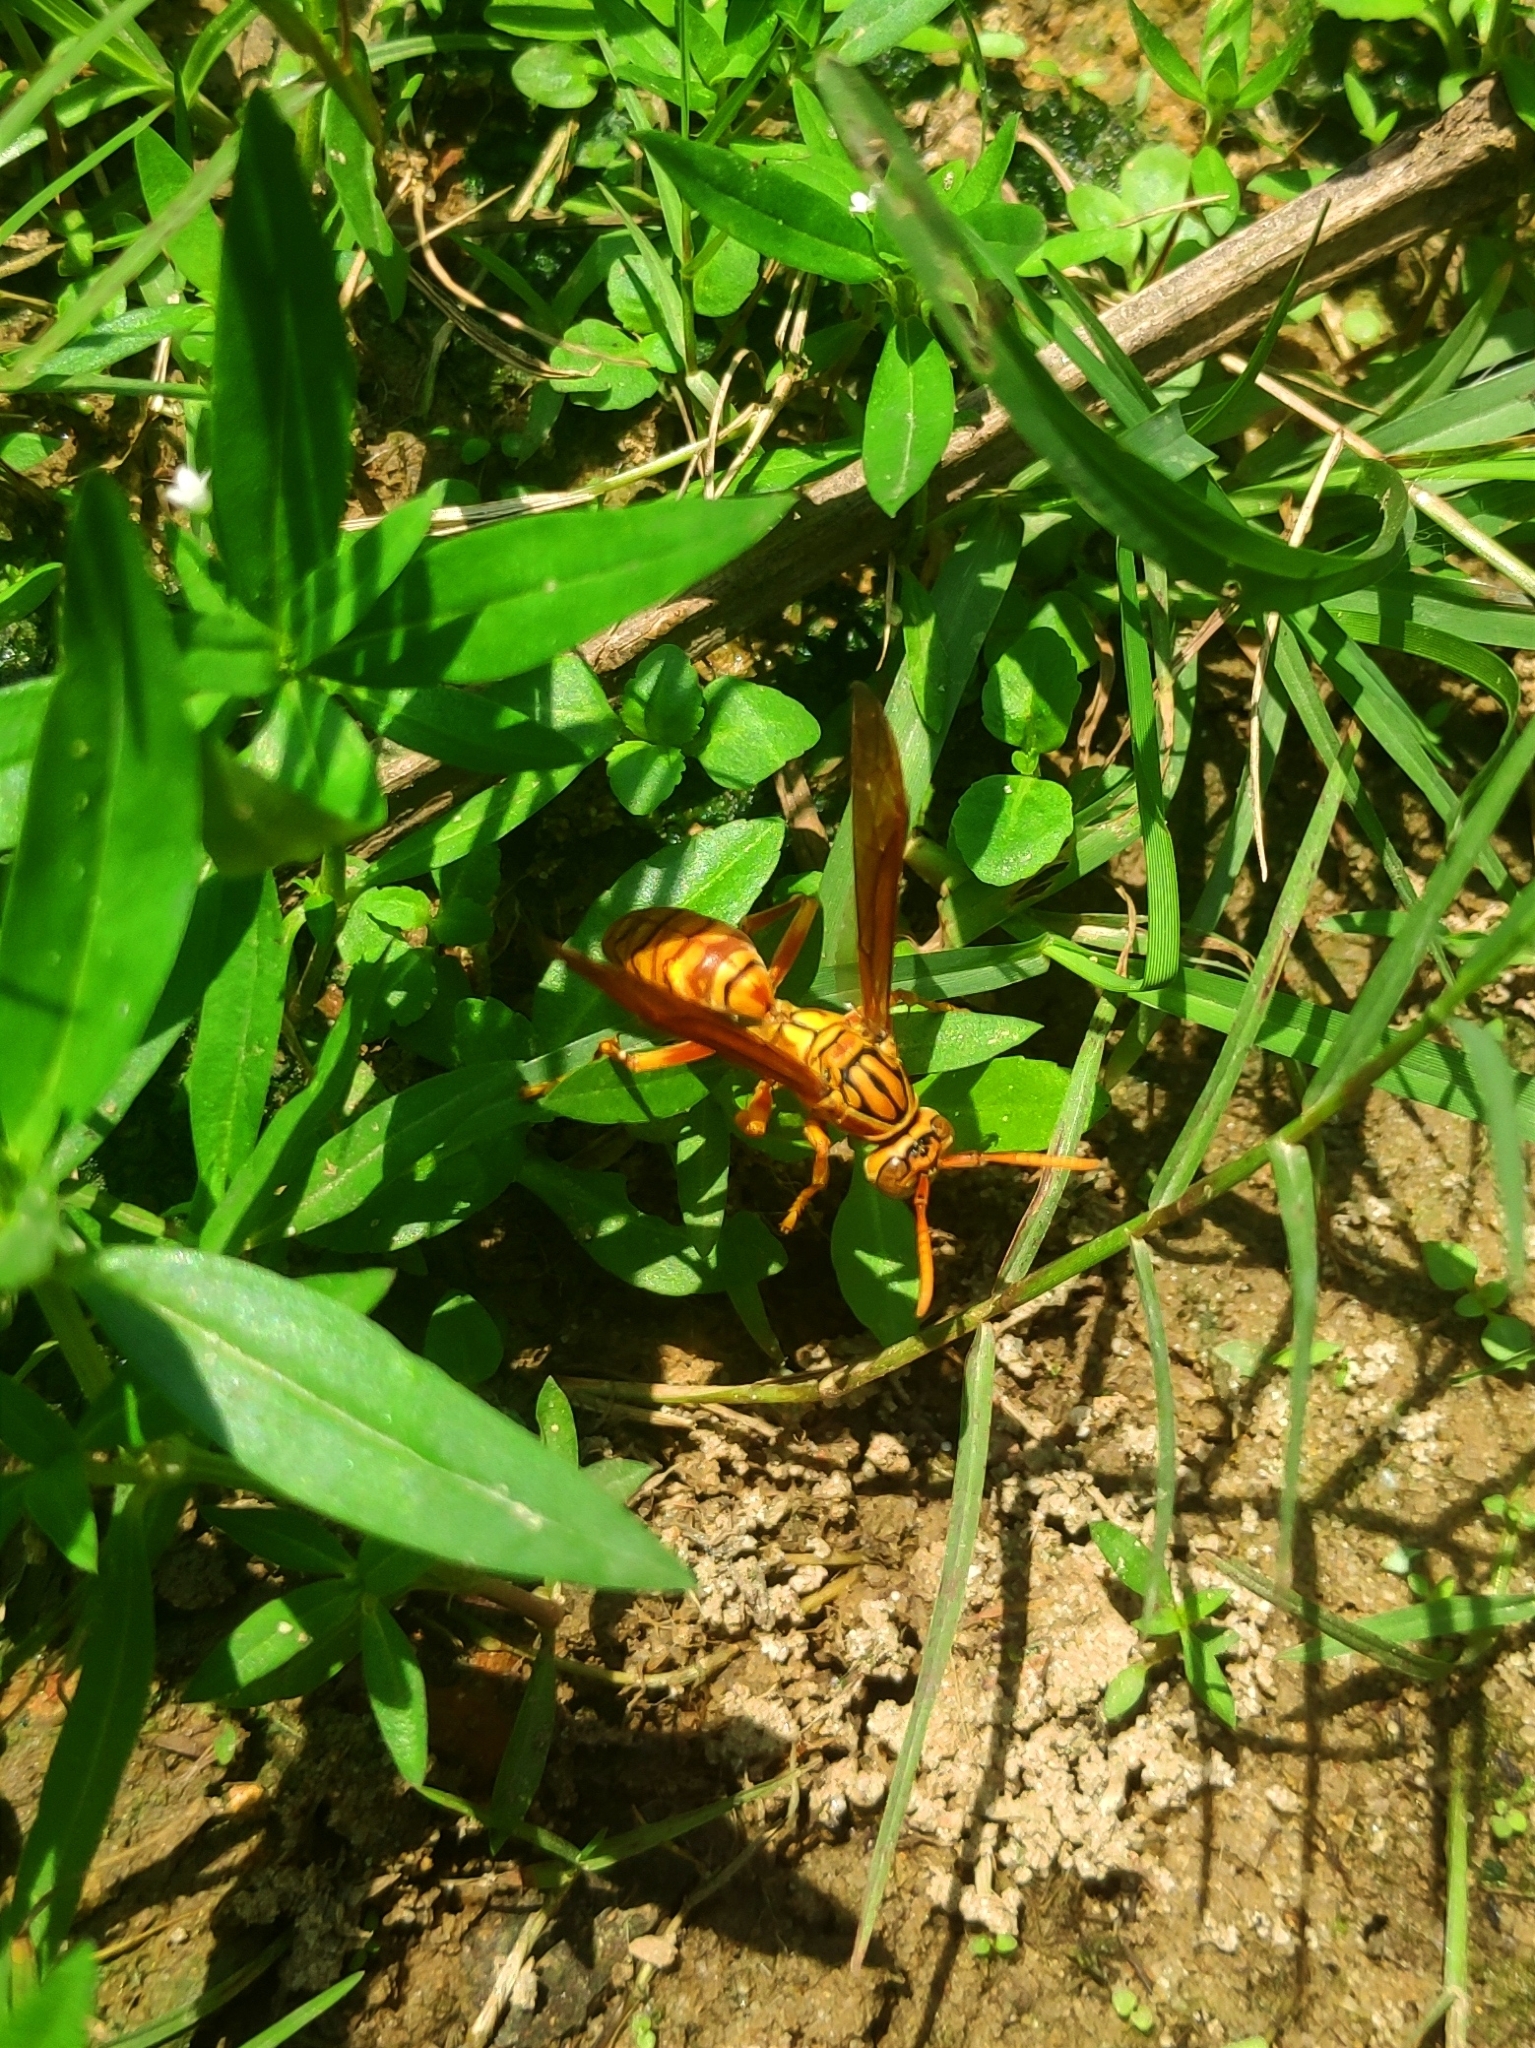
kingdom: Animalia
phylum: Arthropoda
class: Insecta
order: Hymenoptera
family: Eumenidae
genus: Polistes
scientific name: Polistes olivaceus
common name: Paper wasp
